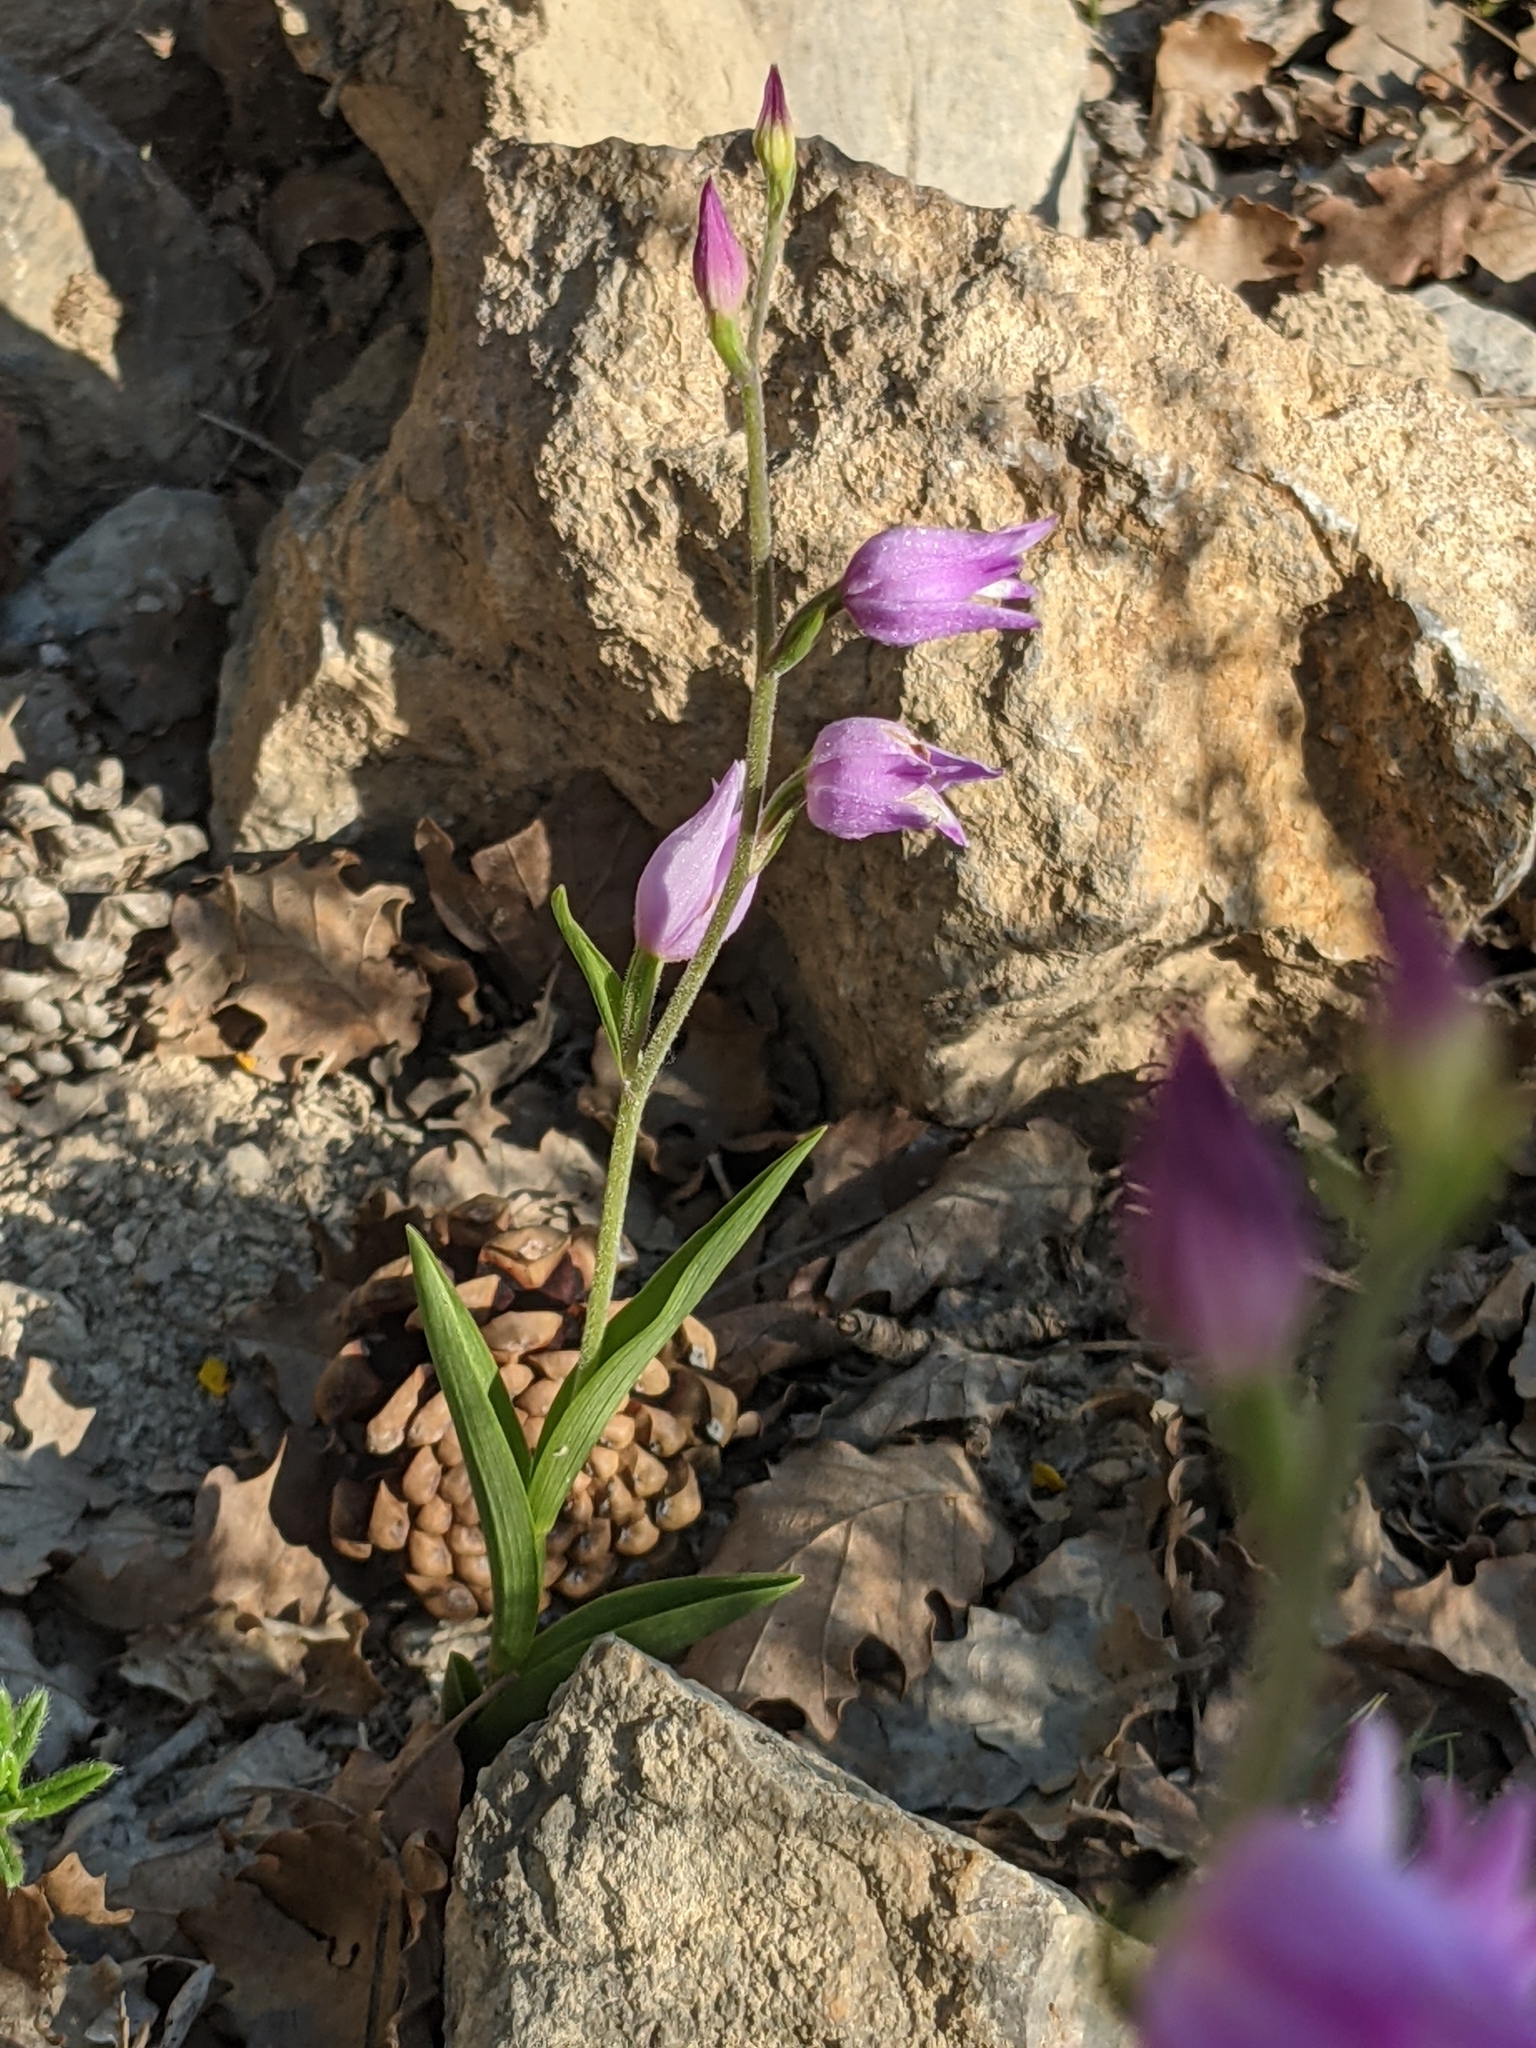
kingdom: Plantae
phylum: Tracheophyta
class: Liliopsida
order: Asparagales
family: Orchidaceae
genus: Cephalanthera
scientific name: Cephalanthera rubra
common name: Red helleborine
